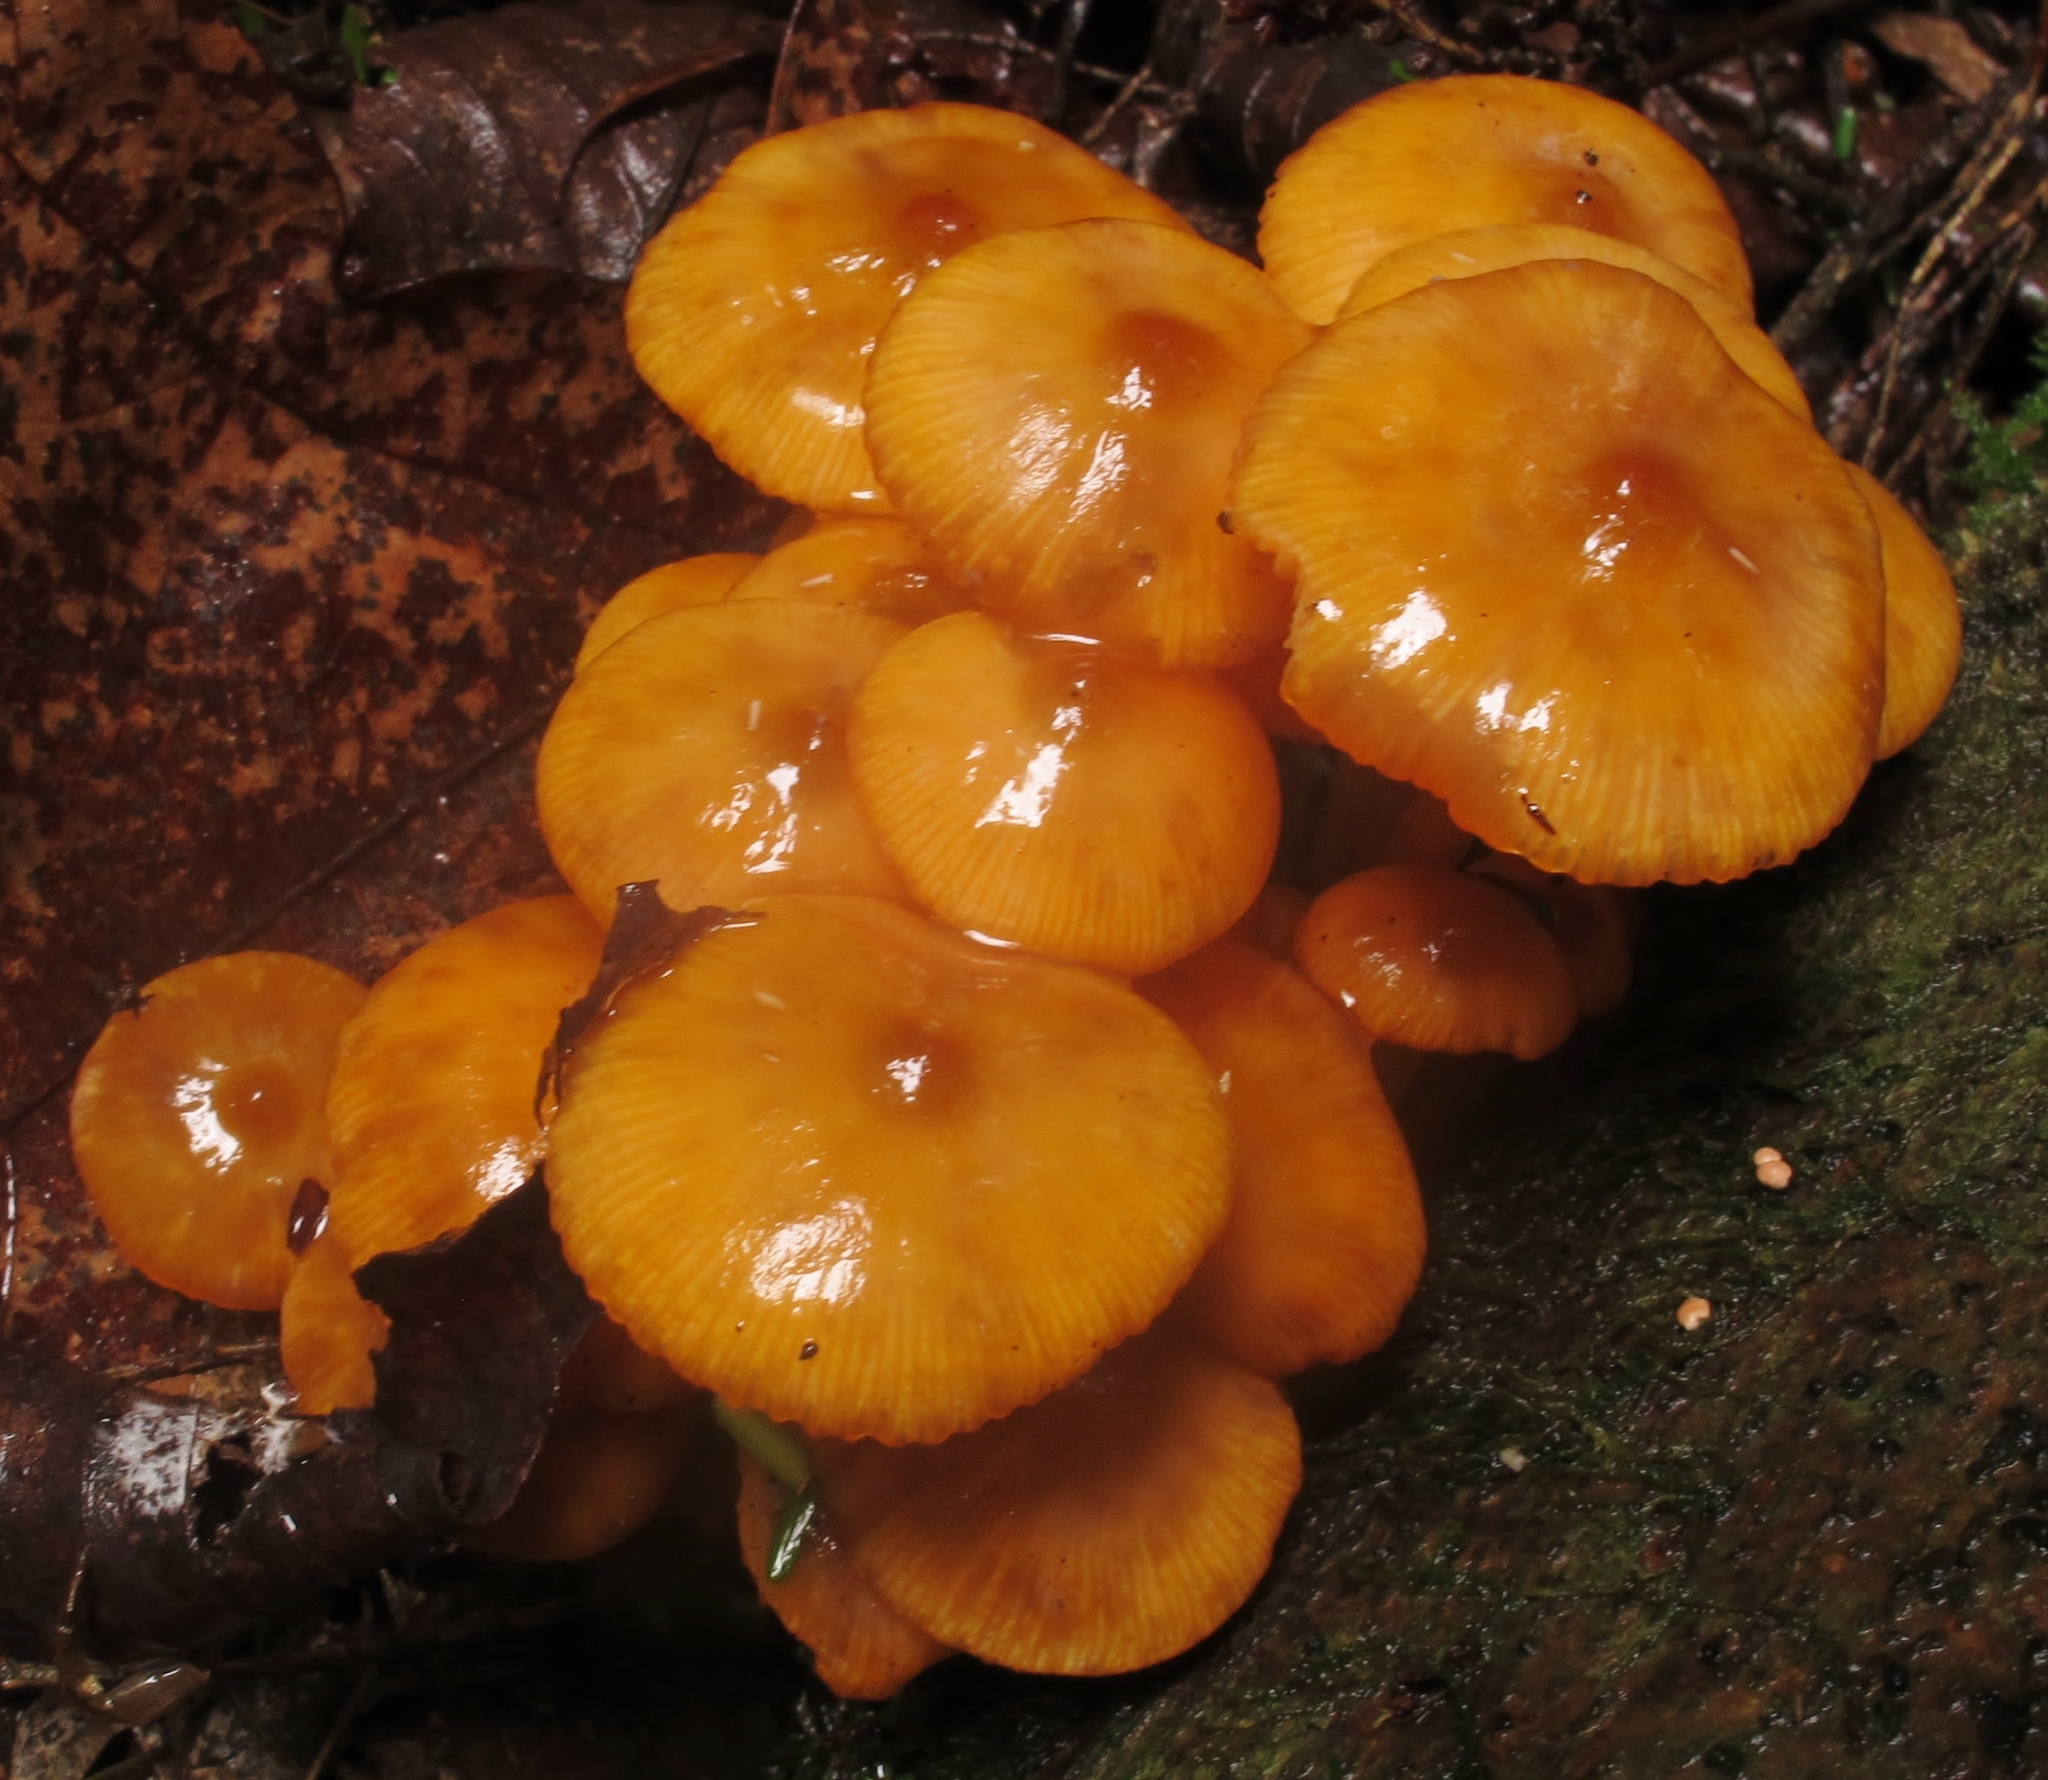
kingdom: Fungi
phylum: Basidiomycota
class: Agaricomycetes
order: Agaricales
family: Mycenaceae
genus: Mycena
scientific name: Mycena leaiana
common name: Orange mycena
